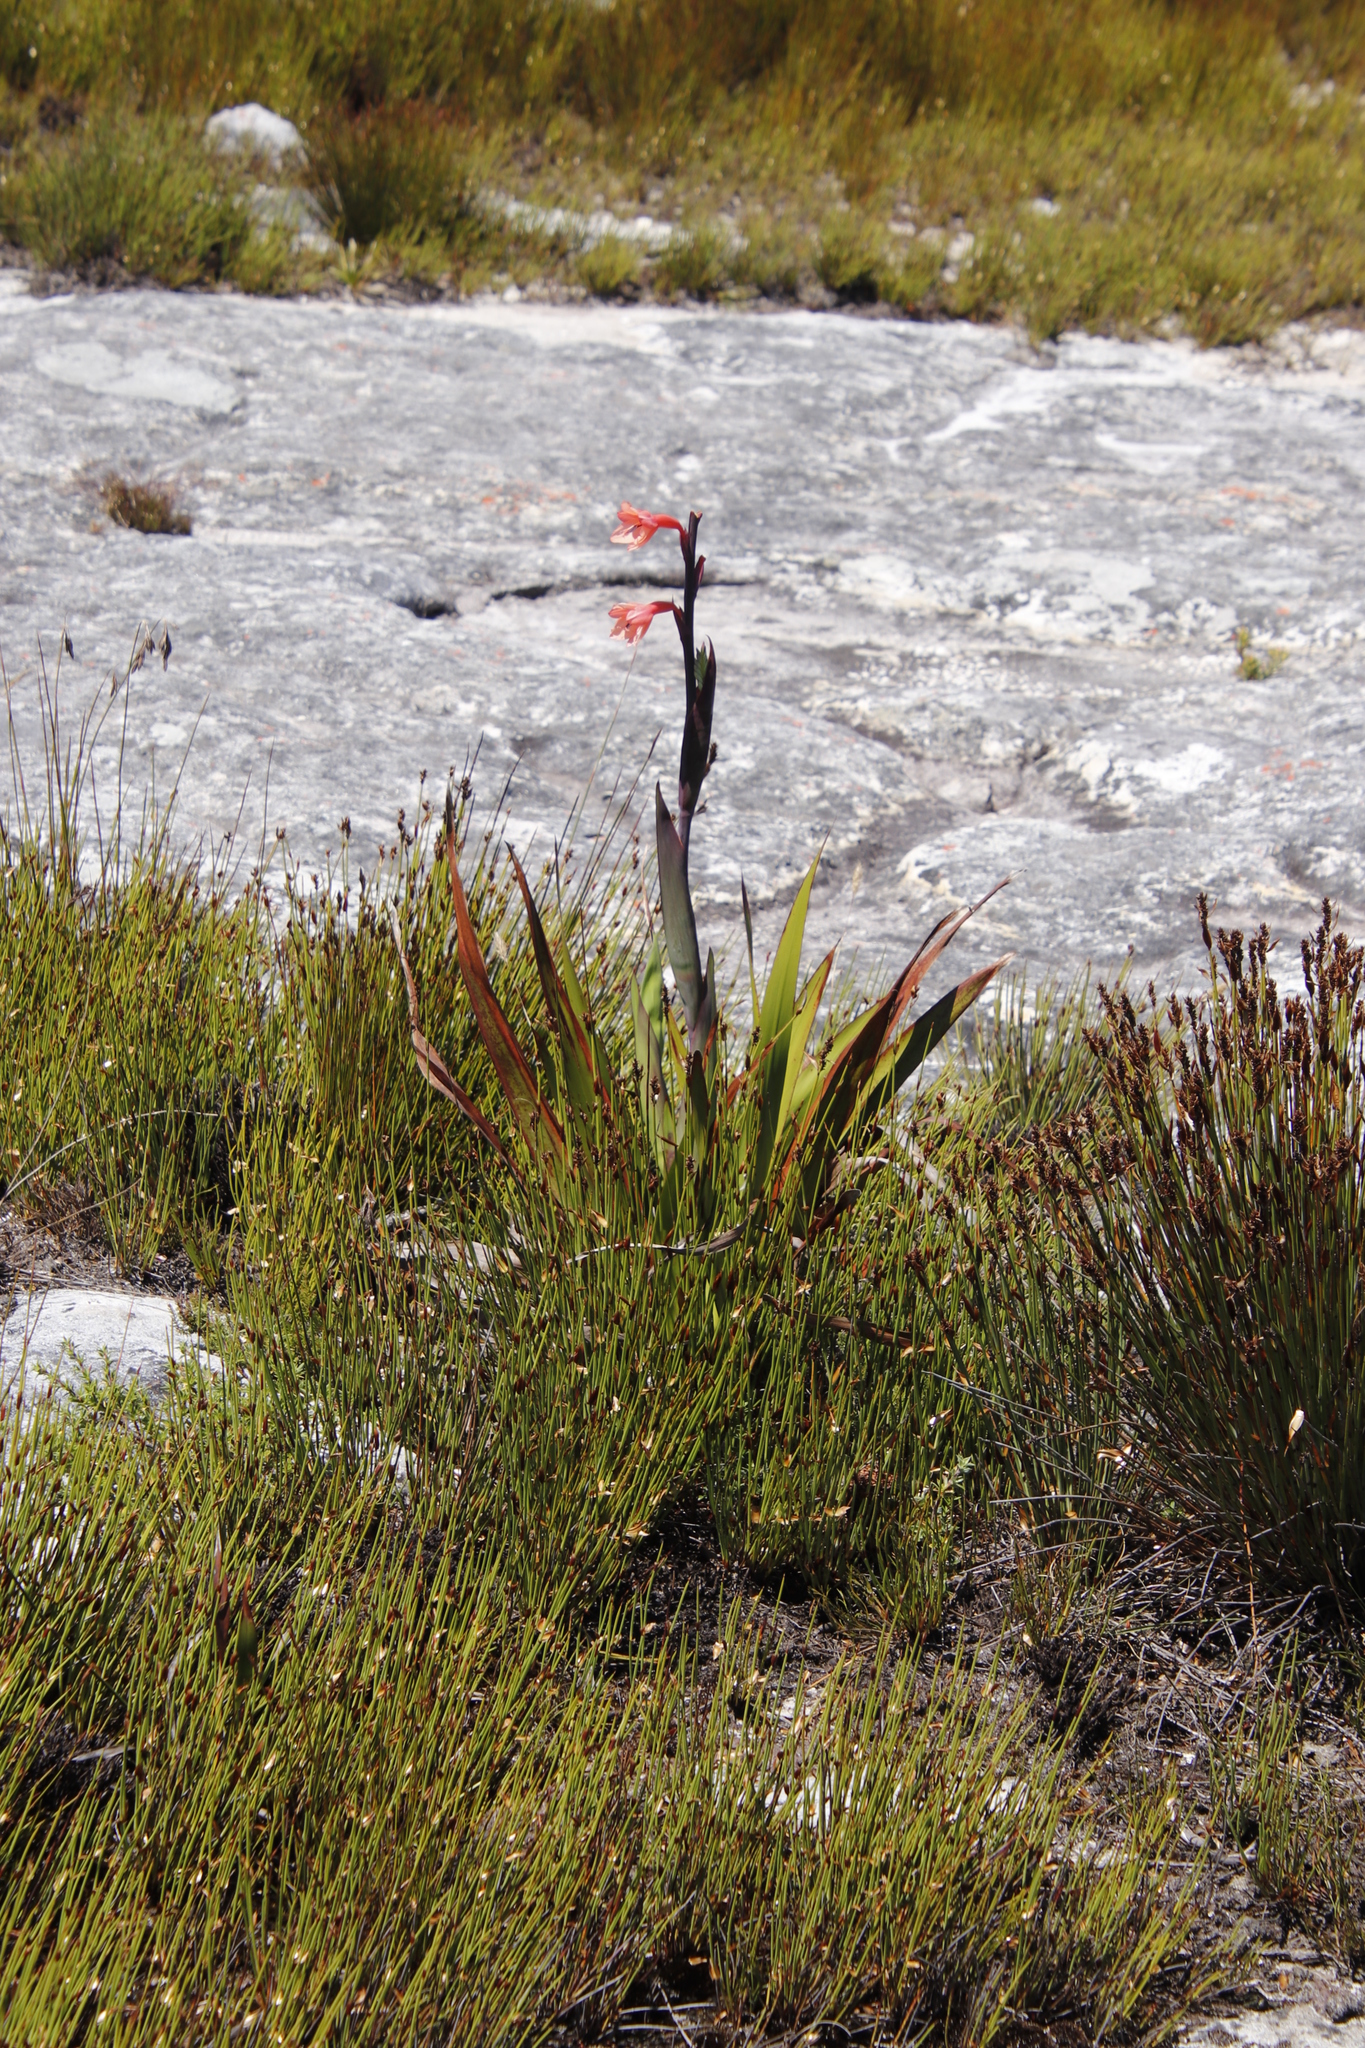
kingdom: Plantae
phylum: Tracheophyta
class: Liliopsida
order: Asparagales
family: Iridaceae
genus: Watsonia
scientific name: Watsonia tabularis
